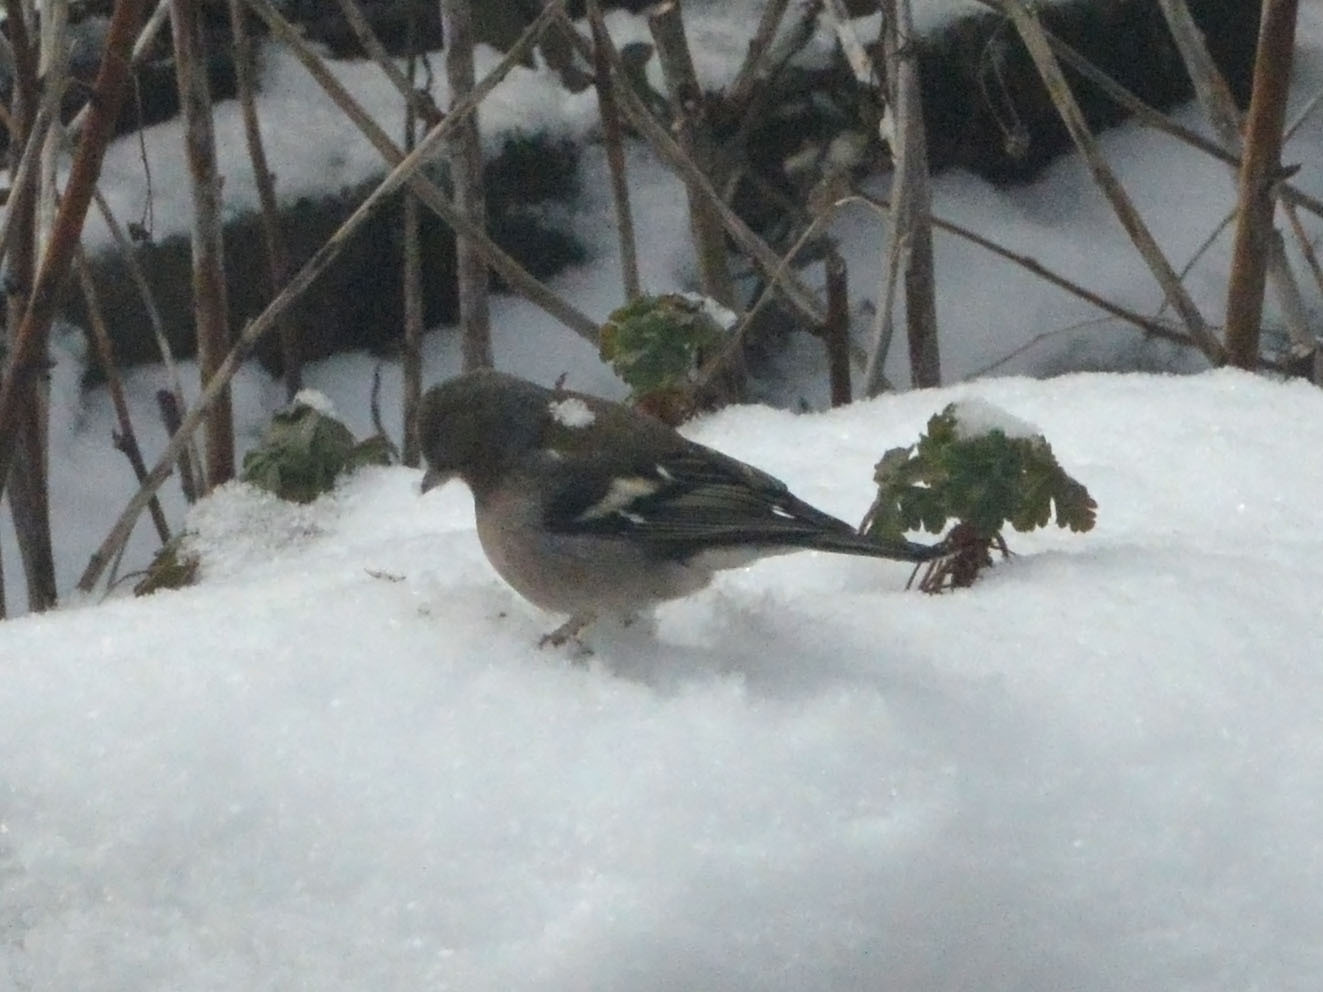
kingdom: Animalia
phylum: Chordata
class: Aves
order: Passeriformes
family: Fringillidae
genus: Fringilla
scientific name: Fringilla coelebs
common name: Common chaffinch
